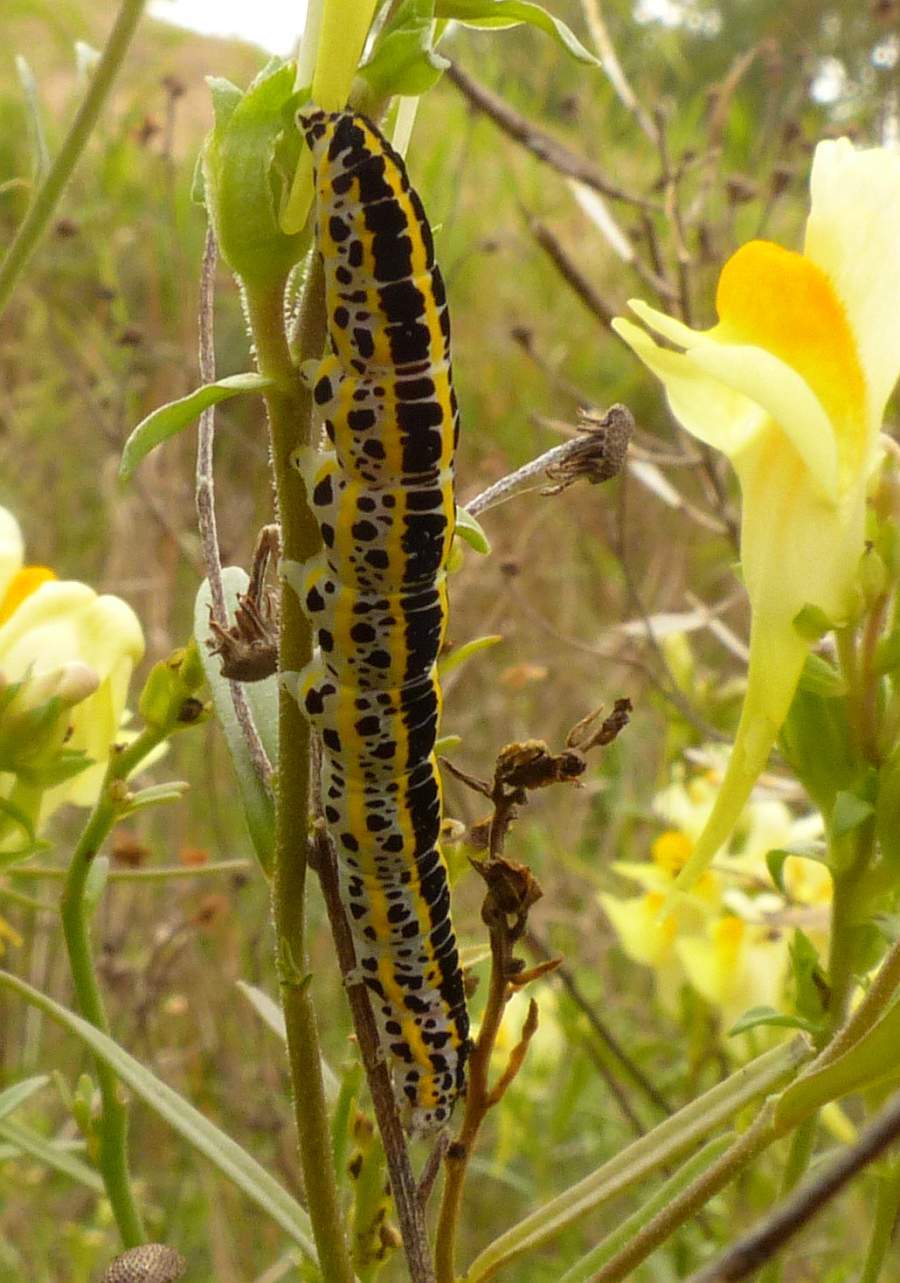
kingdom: Animalia
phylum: Arthropoda
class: Insecta
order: Lepidoptera
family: Noctuidae
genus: Calophasia
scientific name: Calophasia lunula
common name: Toadflax brocade
